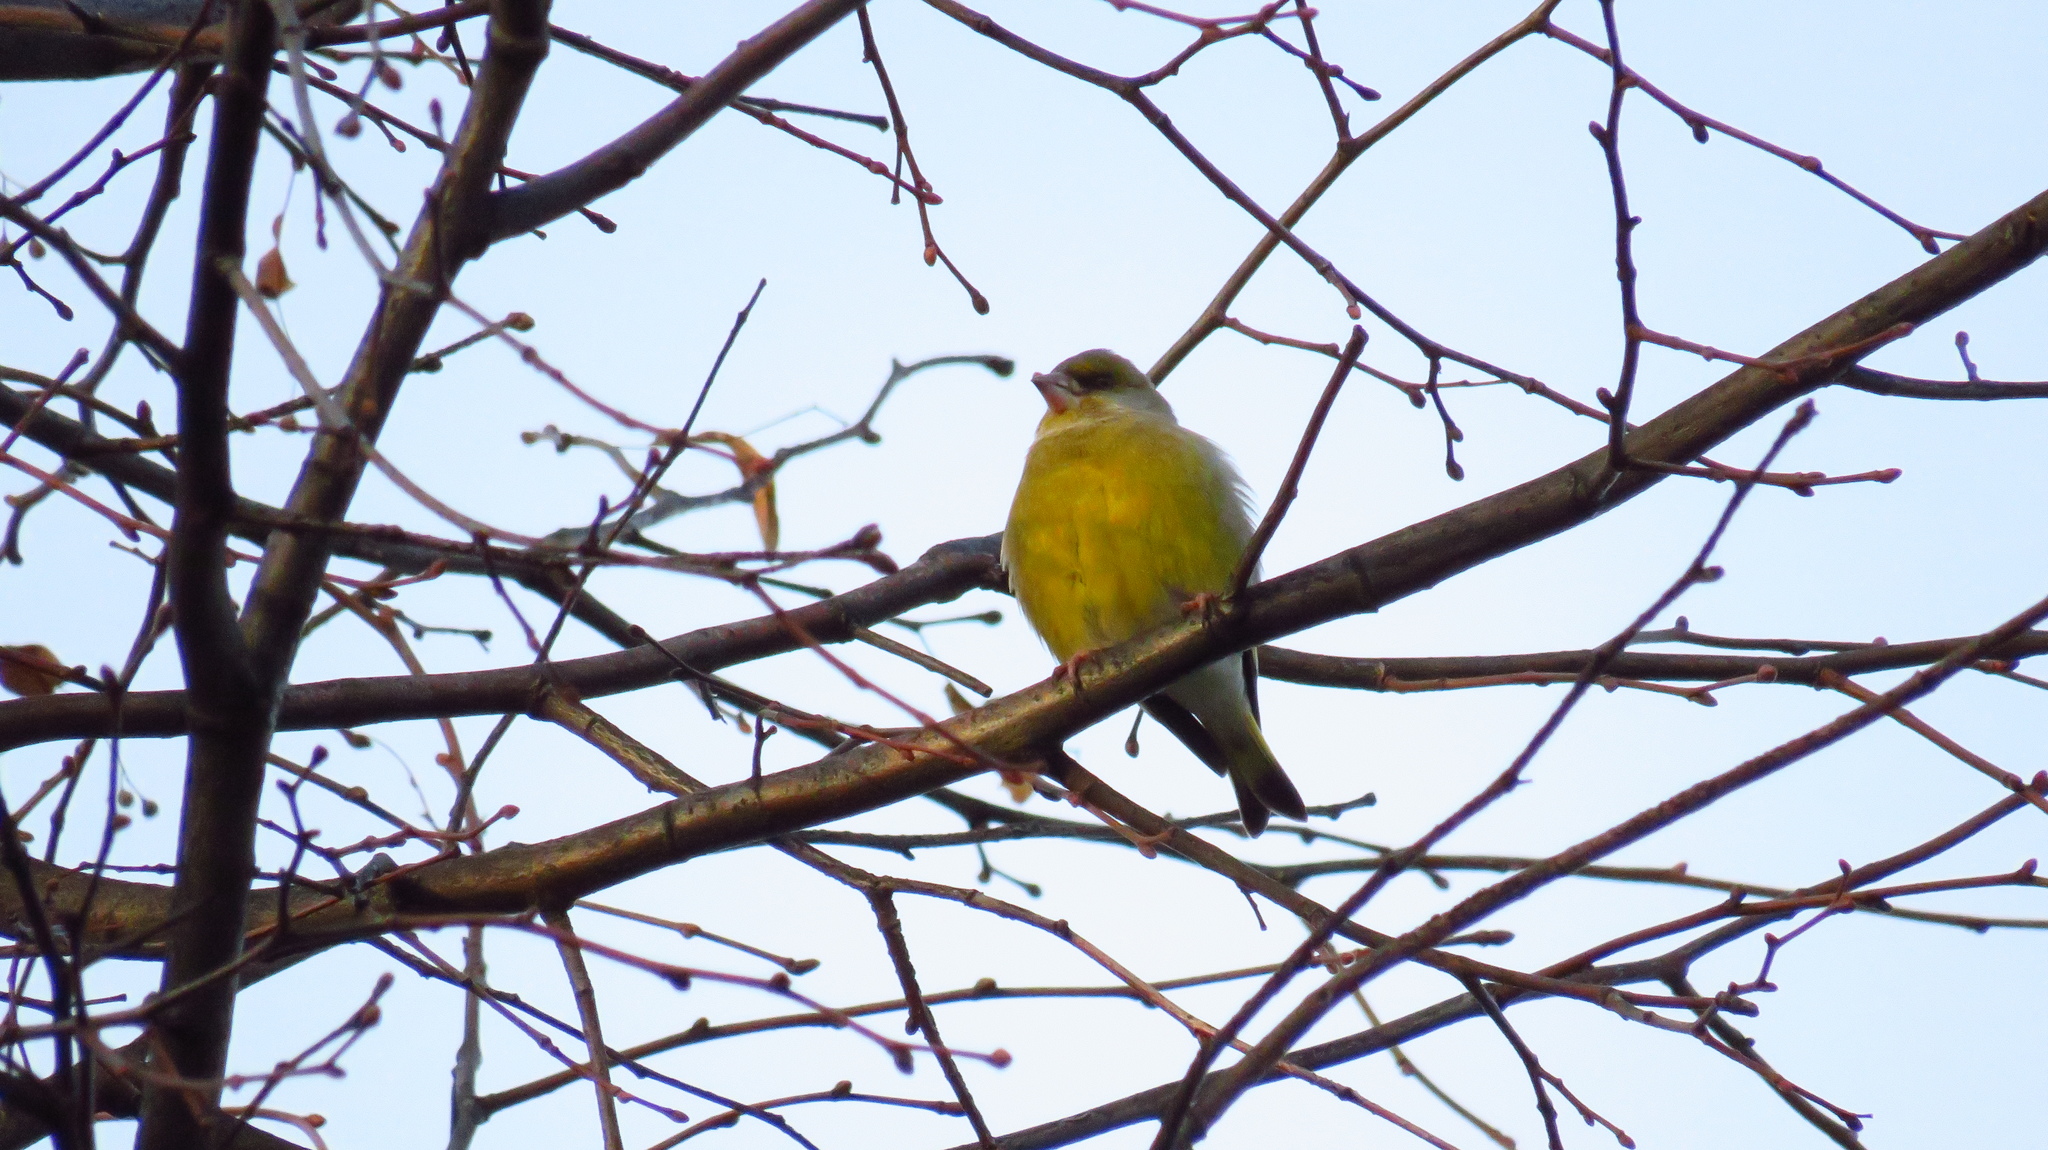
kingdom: Plantae
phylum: Tracheophyta
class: Liliopsida
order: Poales
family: Poaceae
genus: Chloris
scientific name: Chloris chloris
